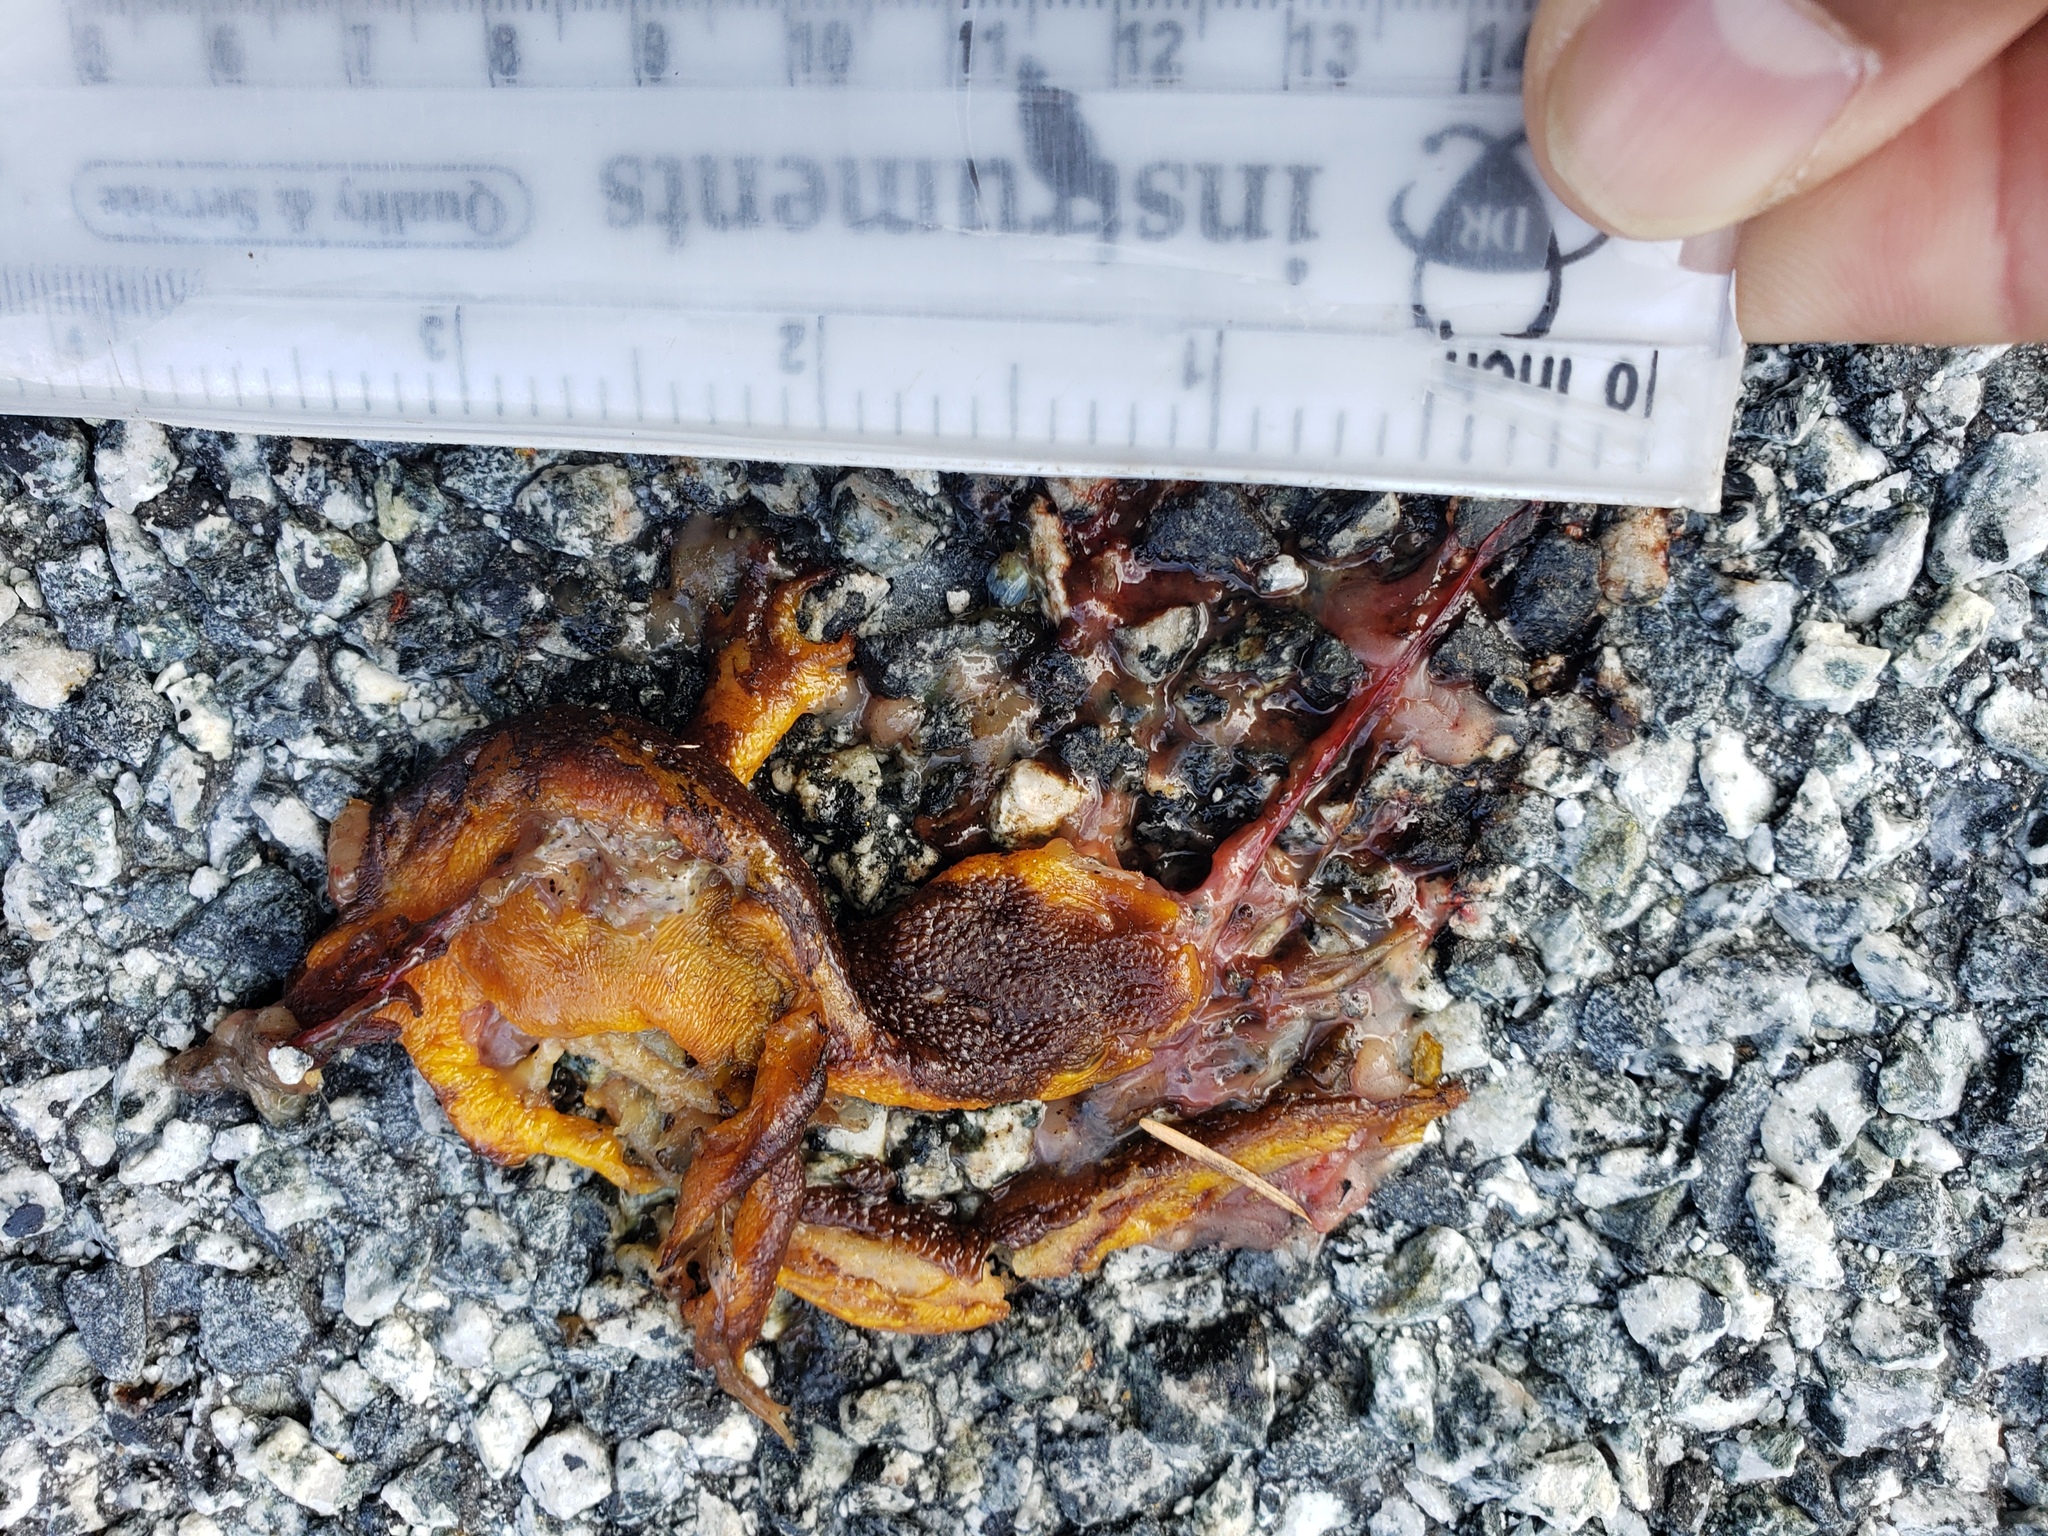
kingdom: Animalia
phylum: Chordata
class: Amphibia
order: Caudata
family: Salamandridae
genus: Taricha
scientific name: Taricha
